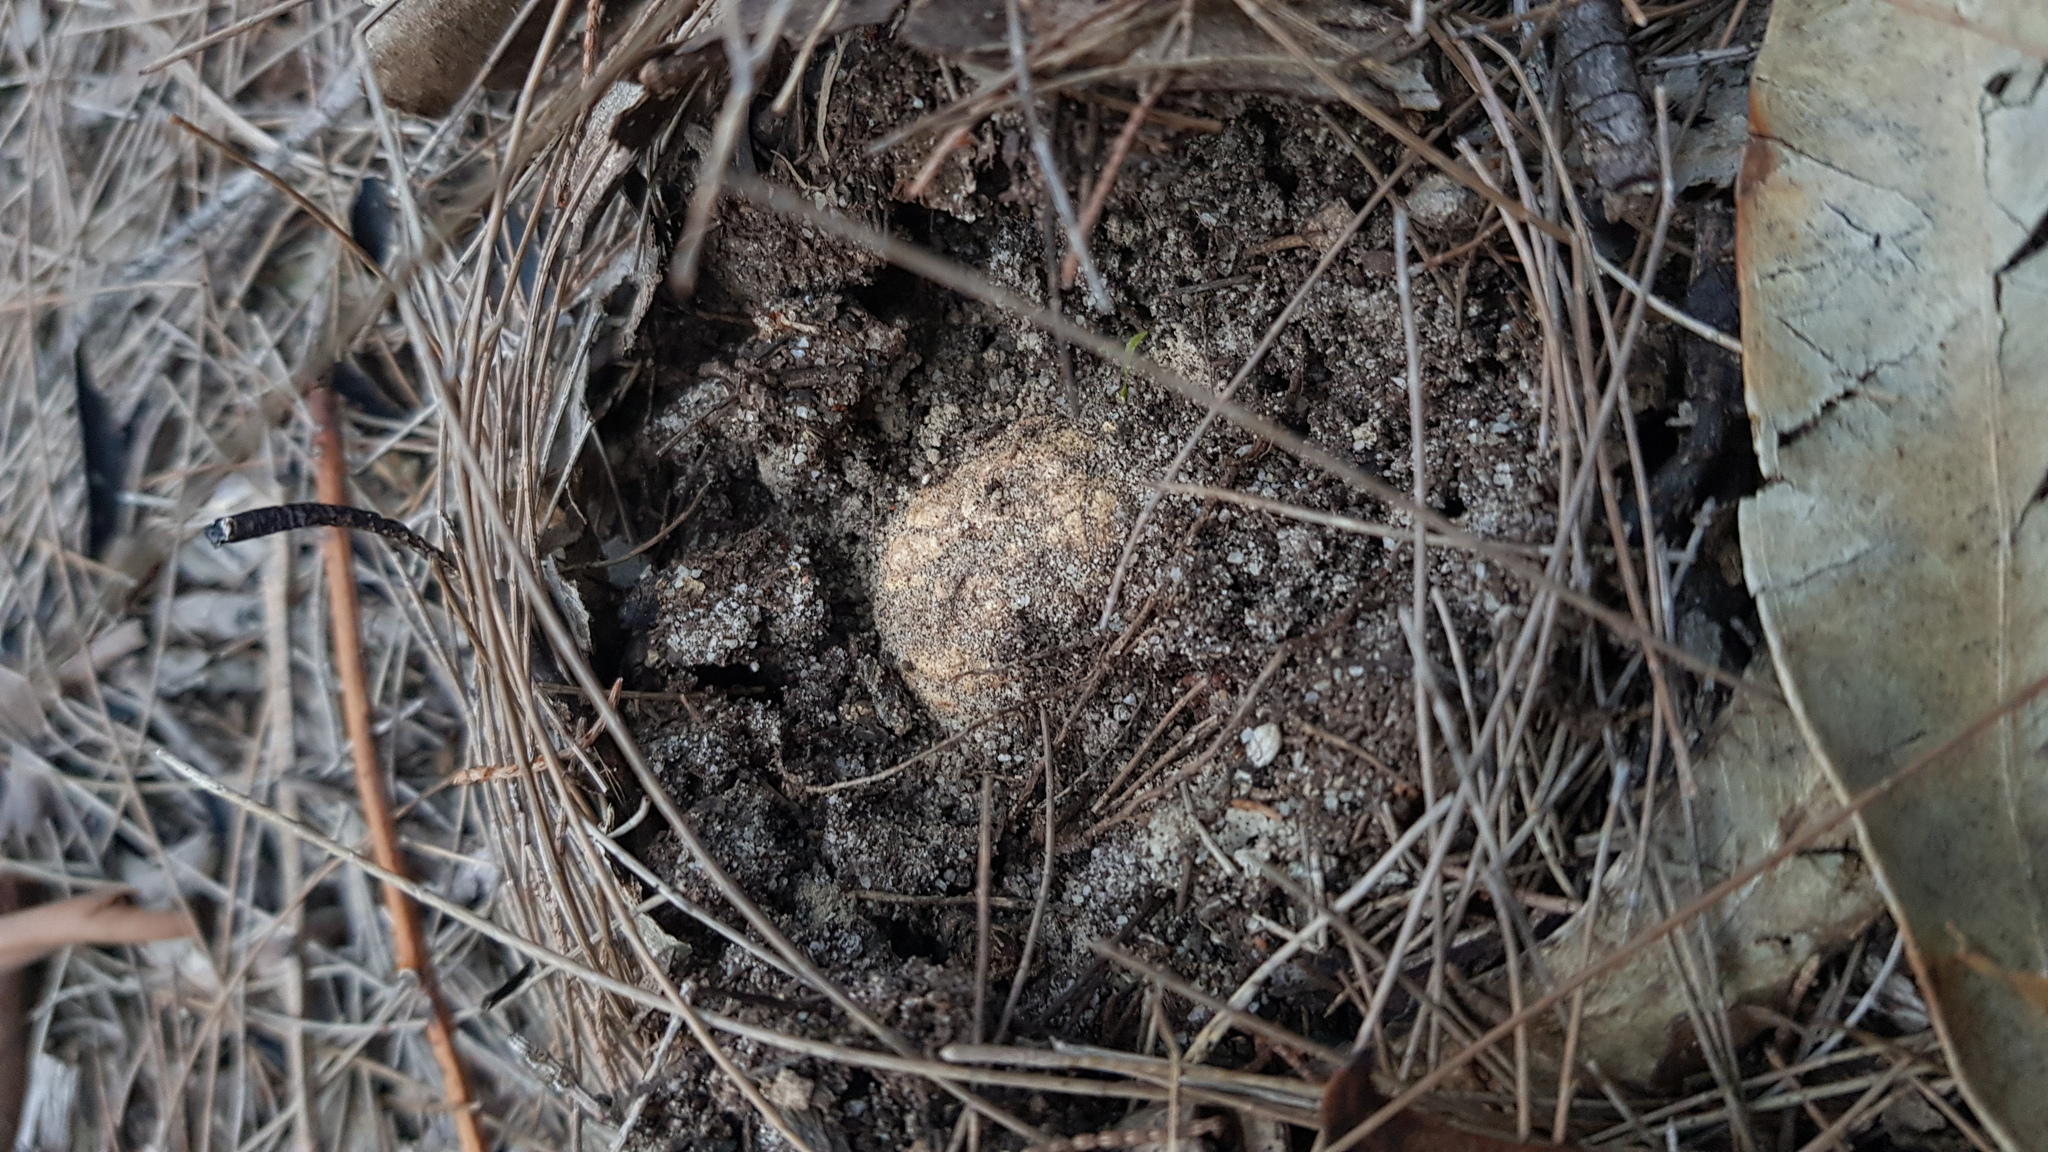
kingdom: Fungi
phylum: Basidiomycota
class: Agaricomycetes
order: Agaricales
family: Amanitaceae
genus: Amanita
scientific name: Amanita ochrophylla
